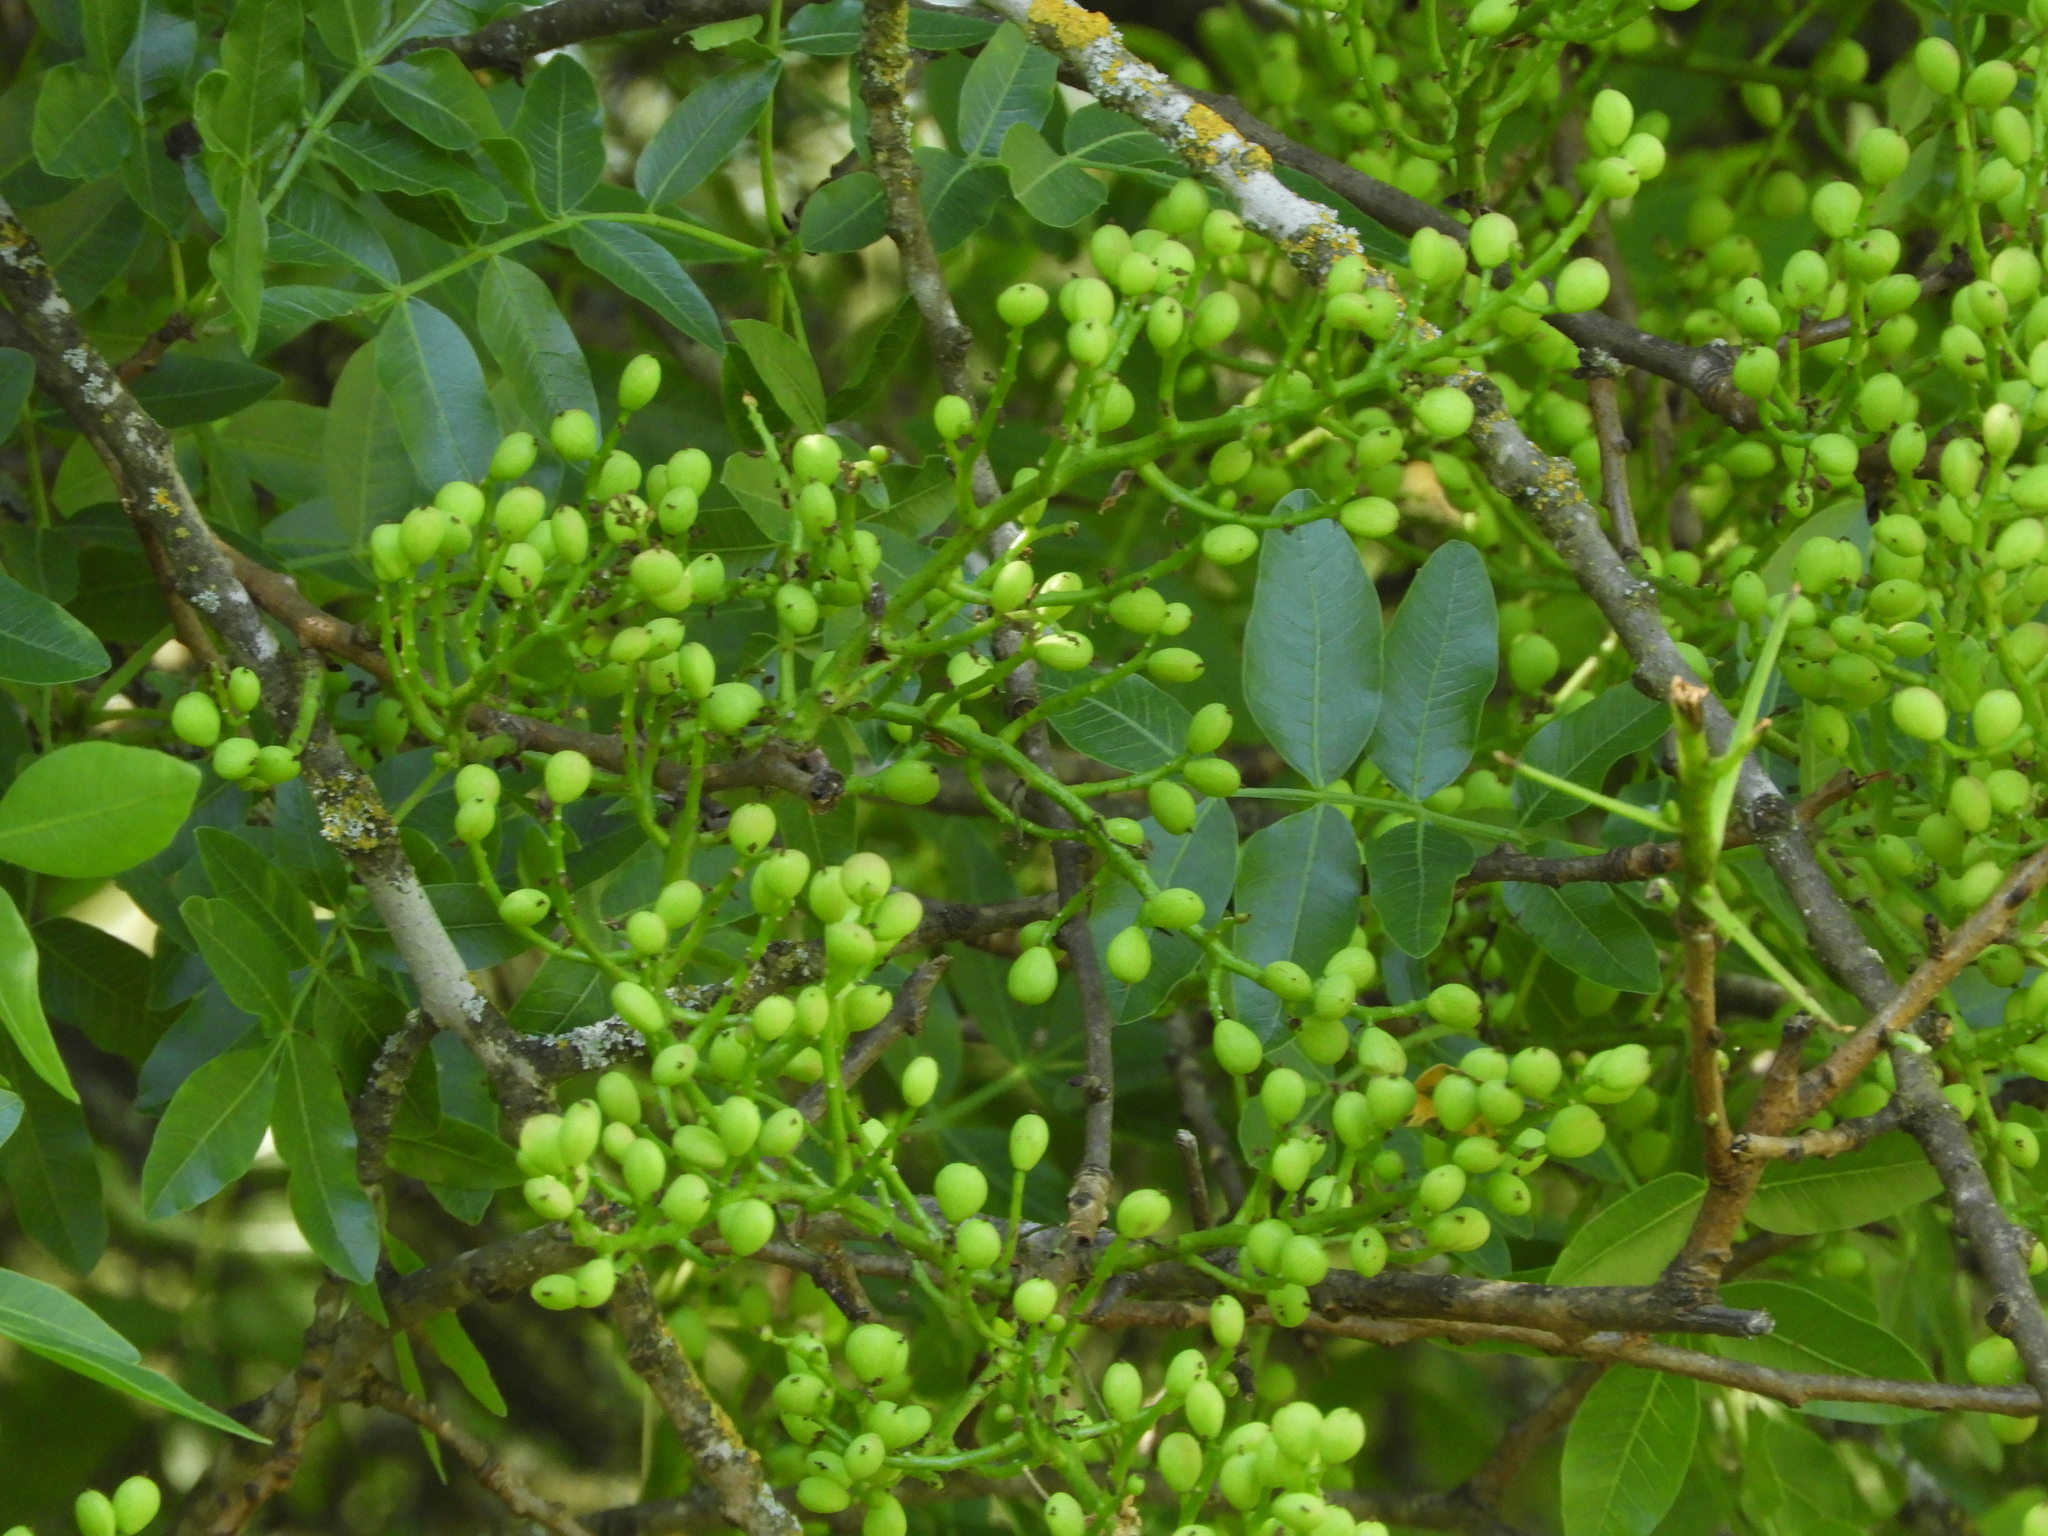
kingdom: Plantae
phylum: Tracheophyta
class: Magnoliopsida
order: Sapindales
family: Anacardiaceae
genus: Pistacia
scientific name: Pistacia atlantica
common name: Mt. atlas mastic tree
